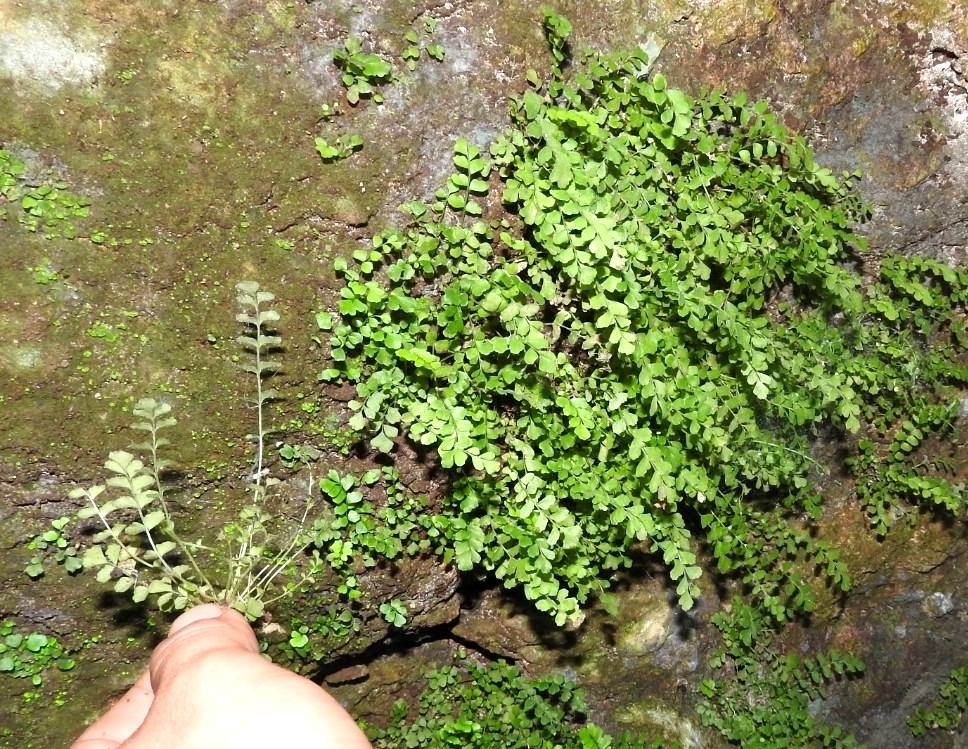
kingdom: Plantae
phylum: Tracheophyta
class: Polypodiopsida
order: Polypodiales
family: Pteridaceae
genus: Adiantum
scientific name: Adiantum capillus-veneris
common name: Maidenhair fern
